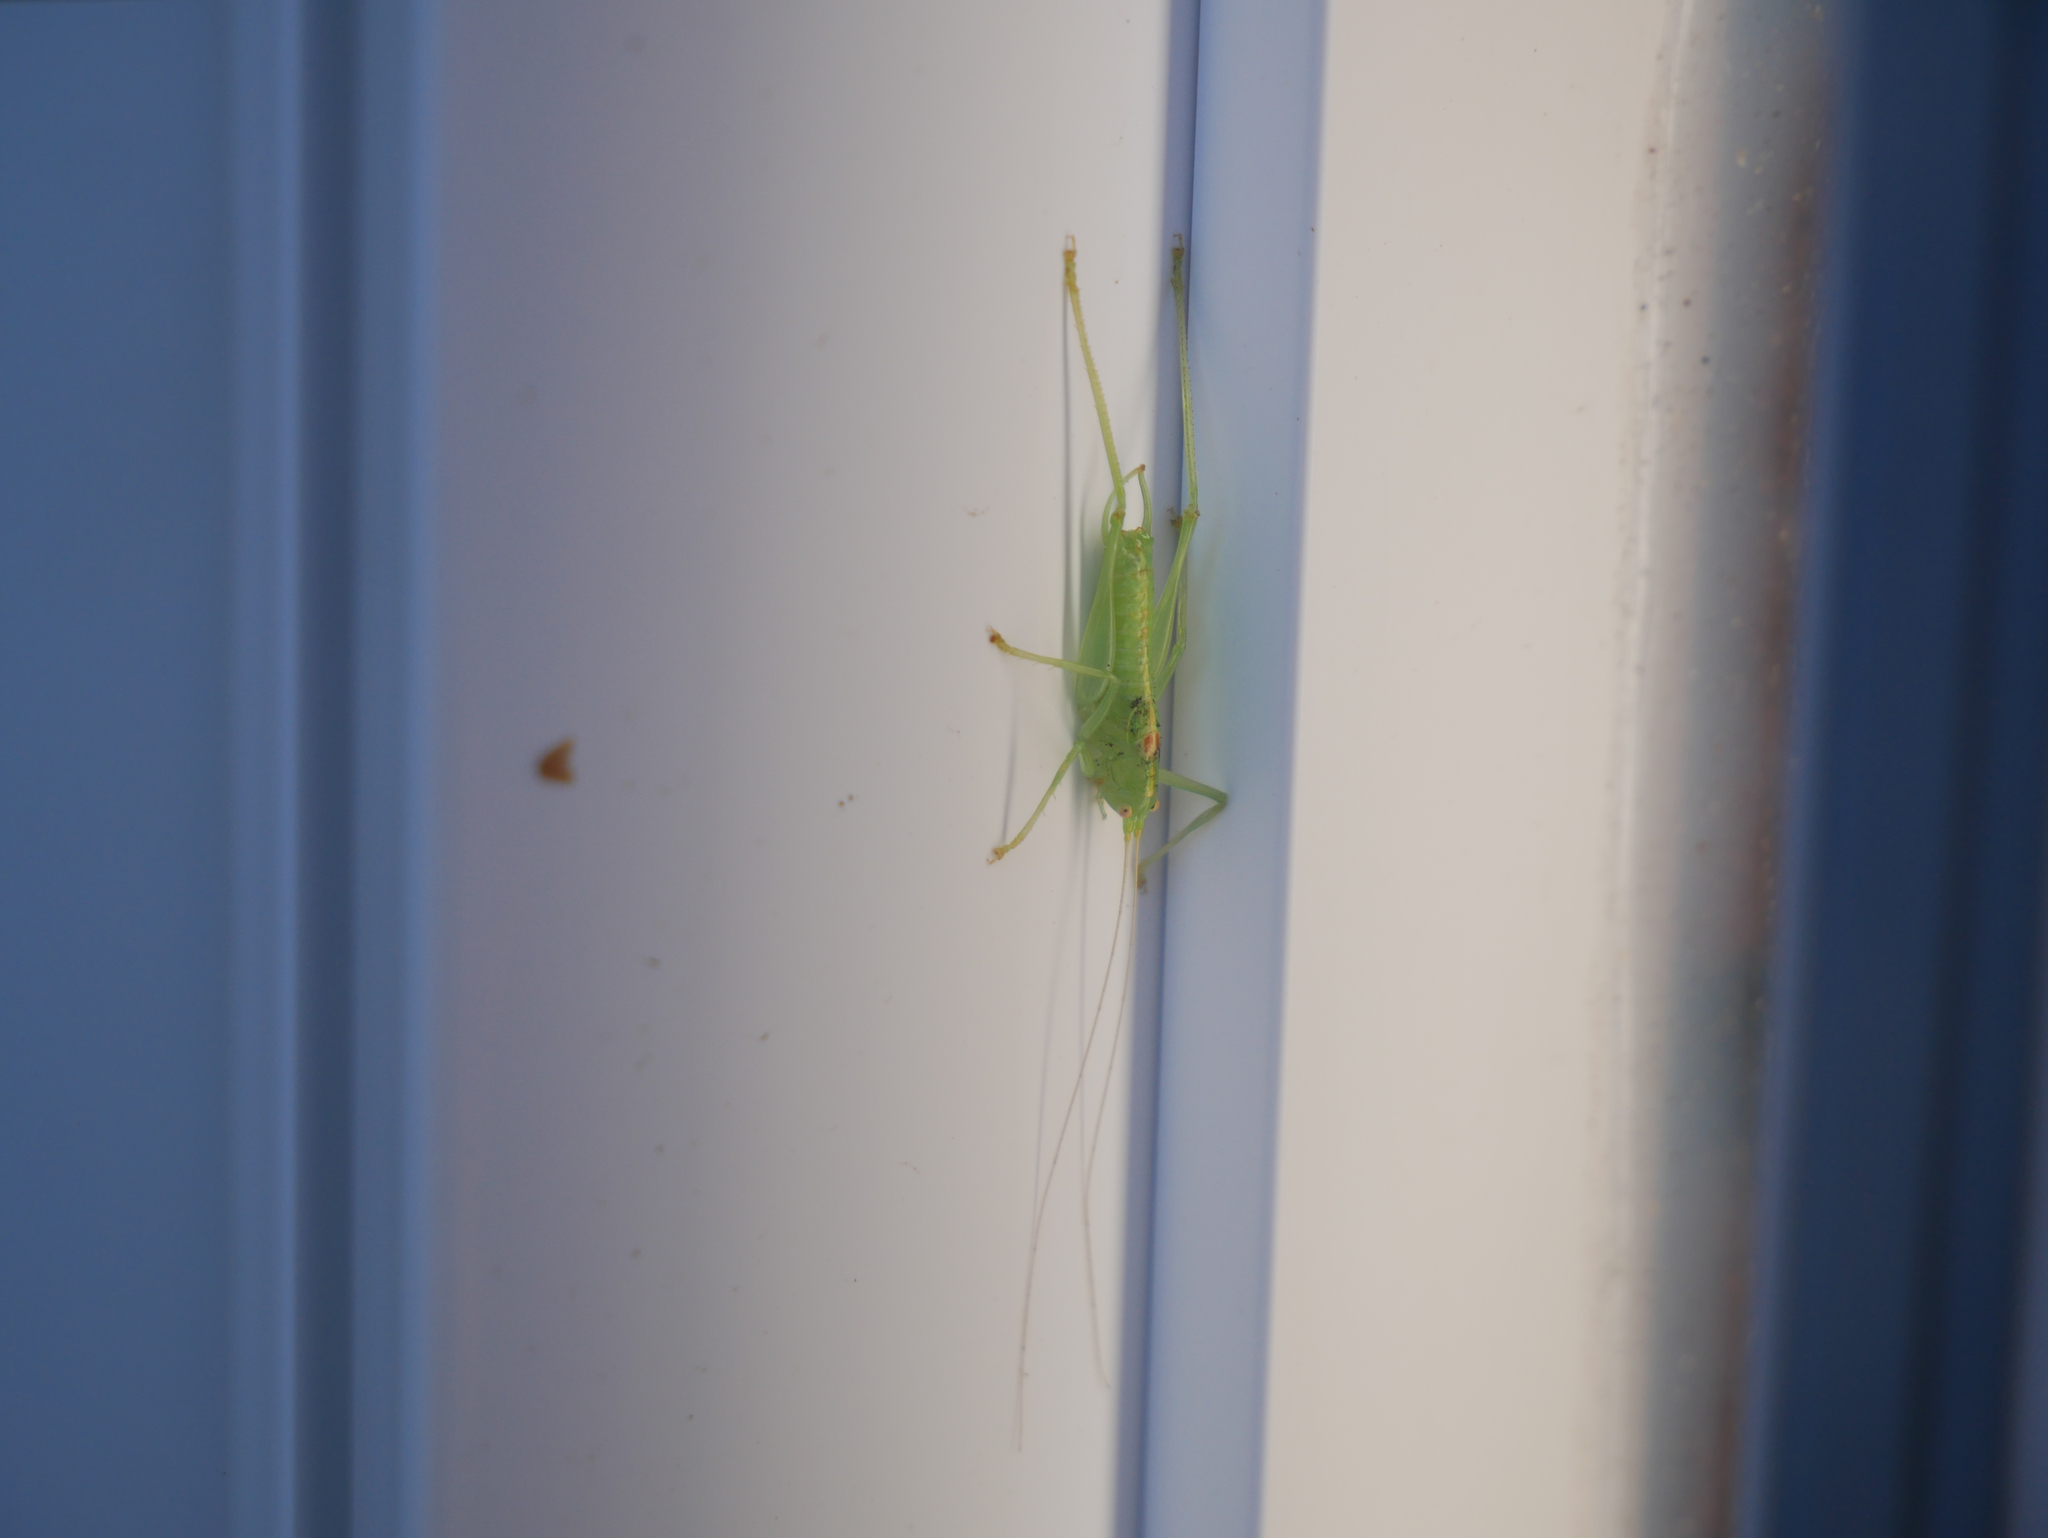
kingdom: Animalia
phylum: Arthropoda
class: Insecta
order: Orthoptera
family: Tettigoniidae
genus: Meconema
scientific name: Meconema meridionale
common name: Southern oak bush-cricket
